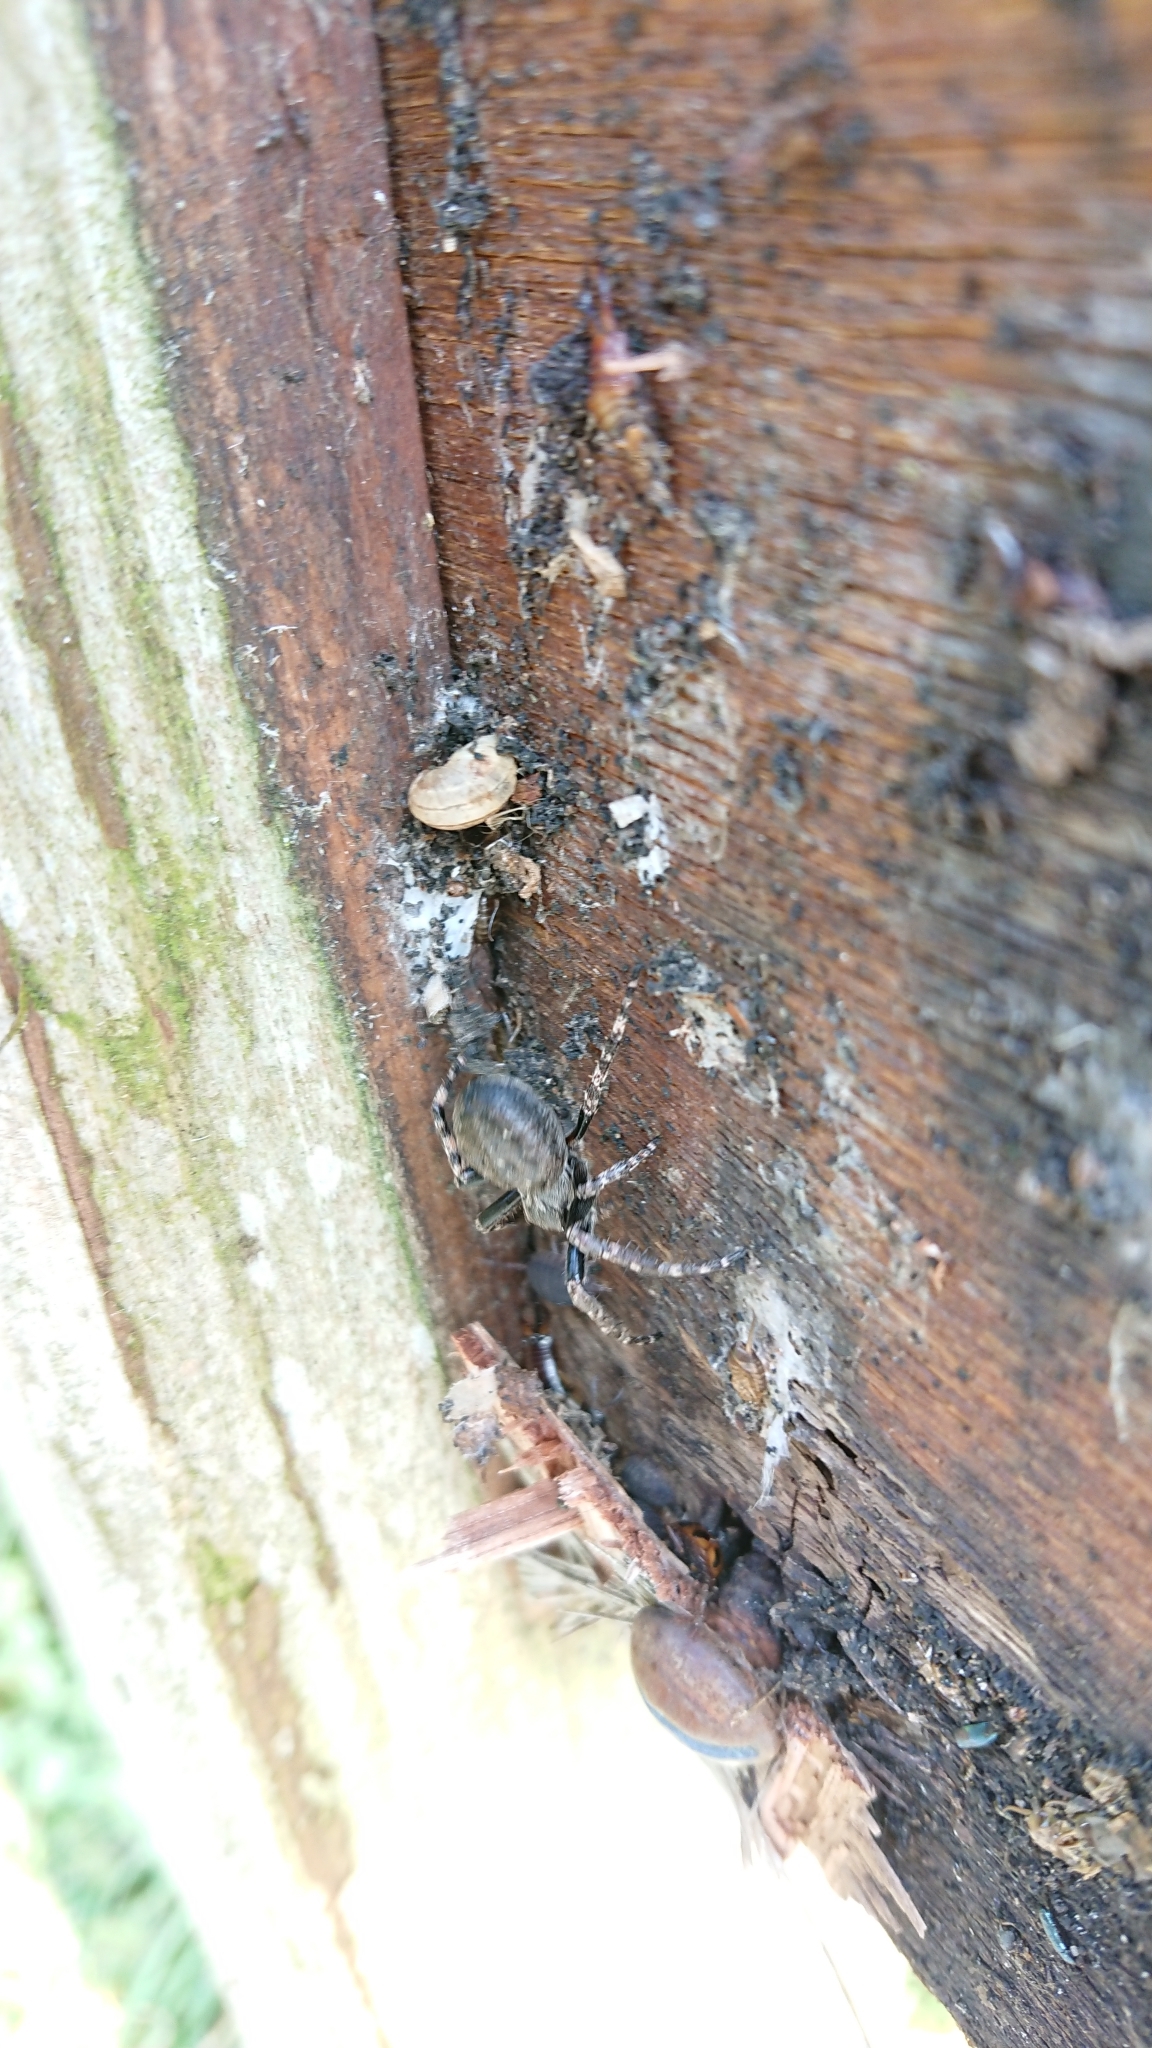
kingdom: Animalia
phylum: Arthropoda
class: Arachnida
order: Araneae
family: Araneidae
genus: Nuctenea
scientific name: Nuctenea umbratica
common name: Toad spider
